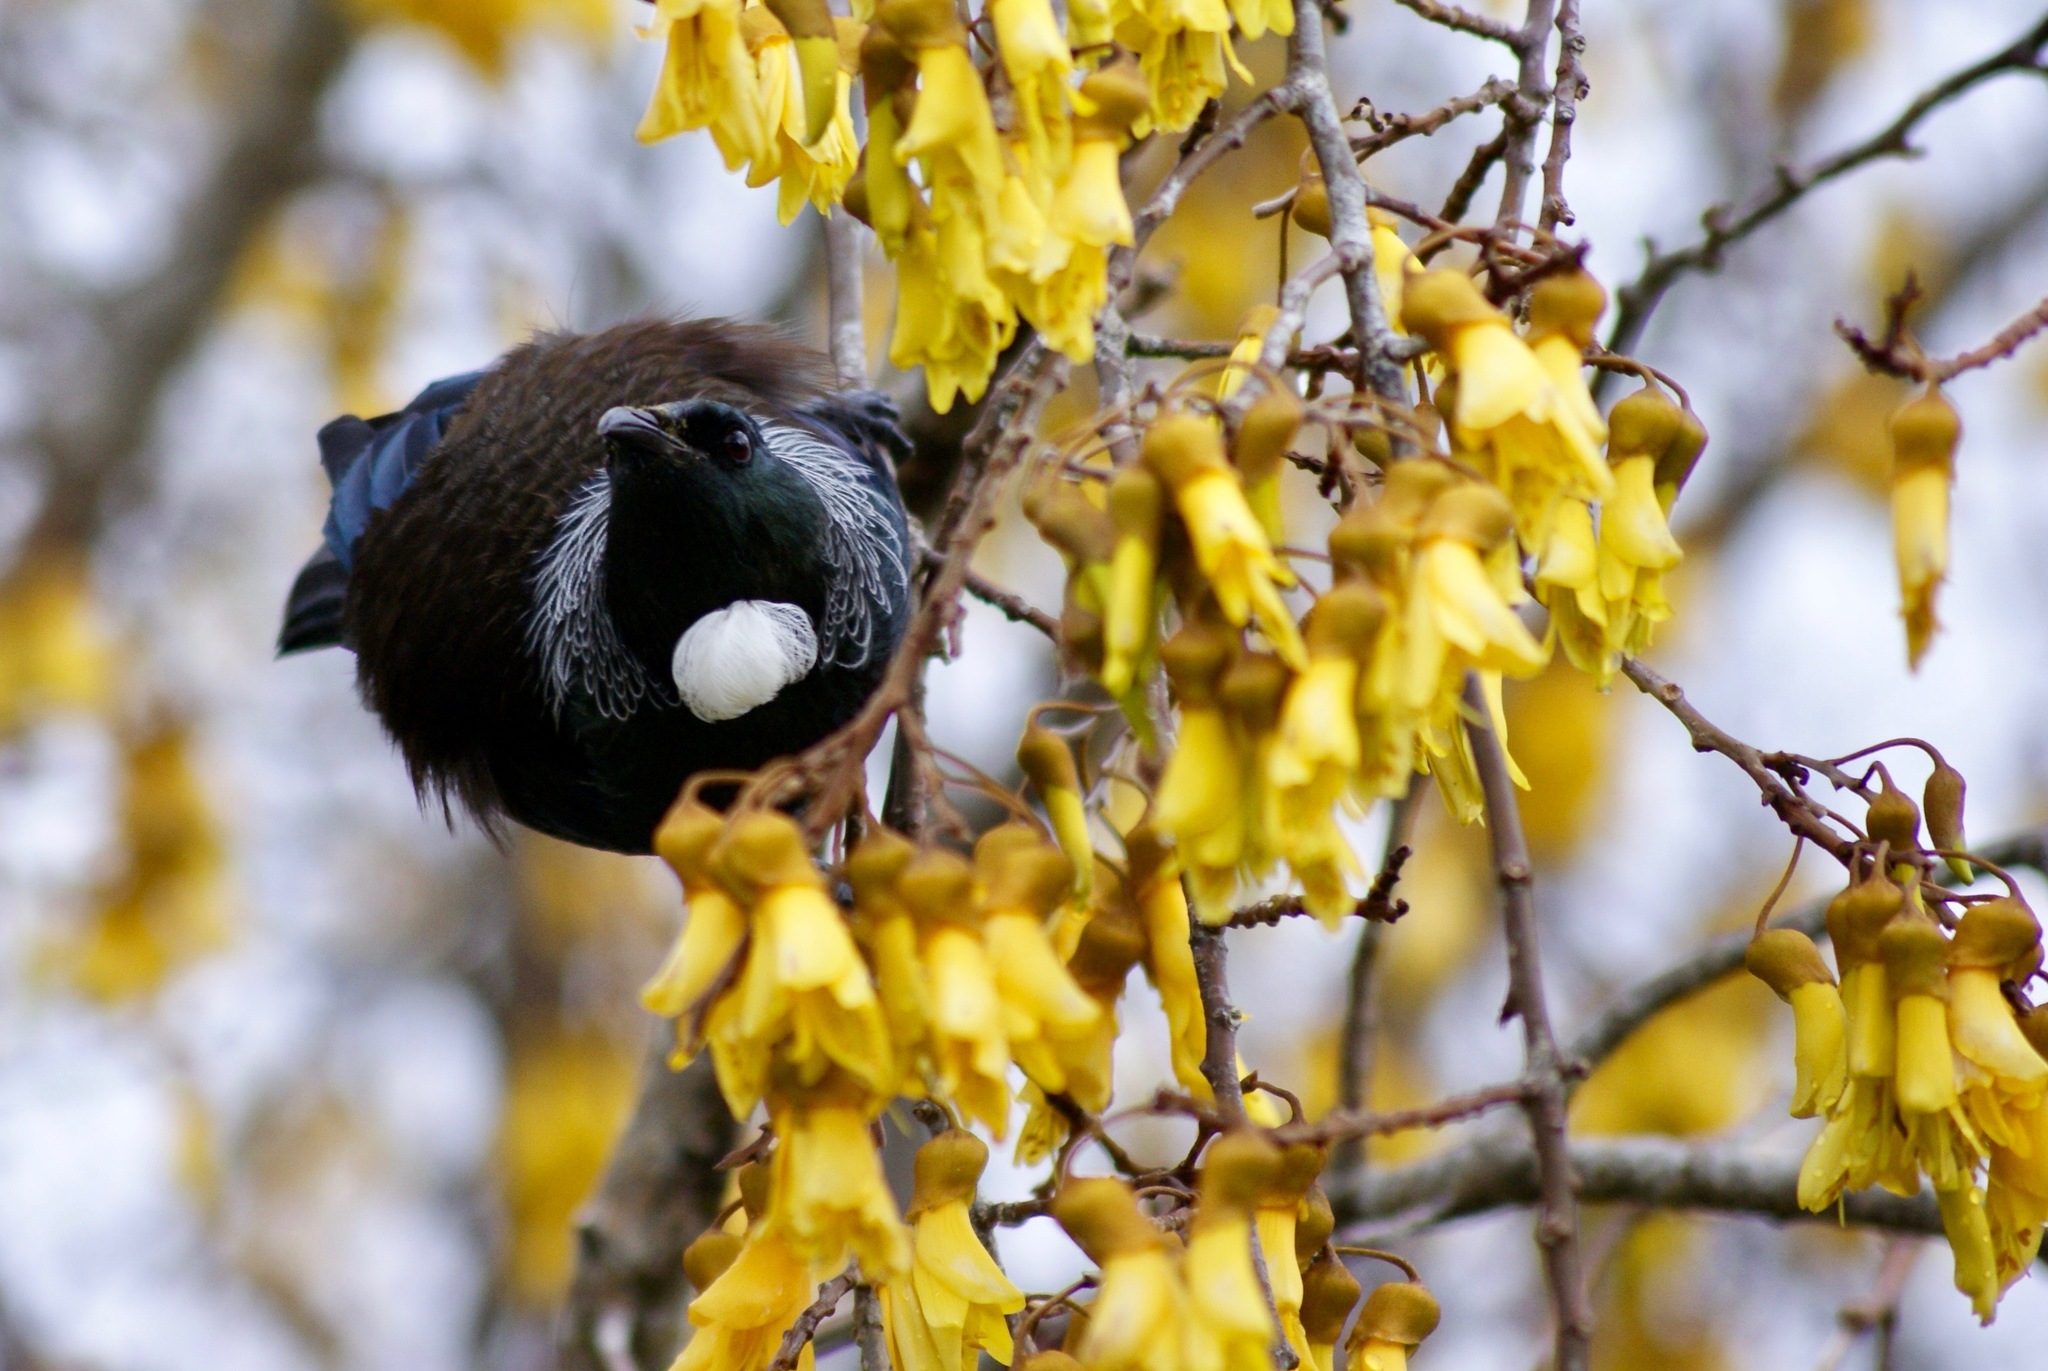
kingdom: Animalia
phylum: Chordata
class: Aves
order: Passeriformes
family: Meliphagidae
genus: Prosthemadera
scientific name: Prosthemadera novaeseelandiae
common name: Tui
